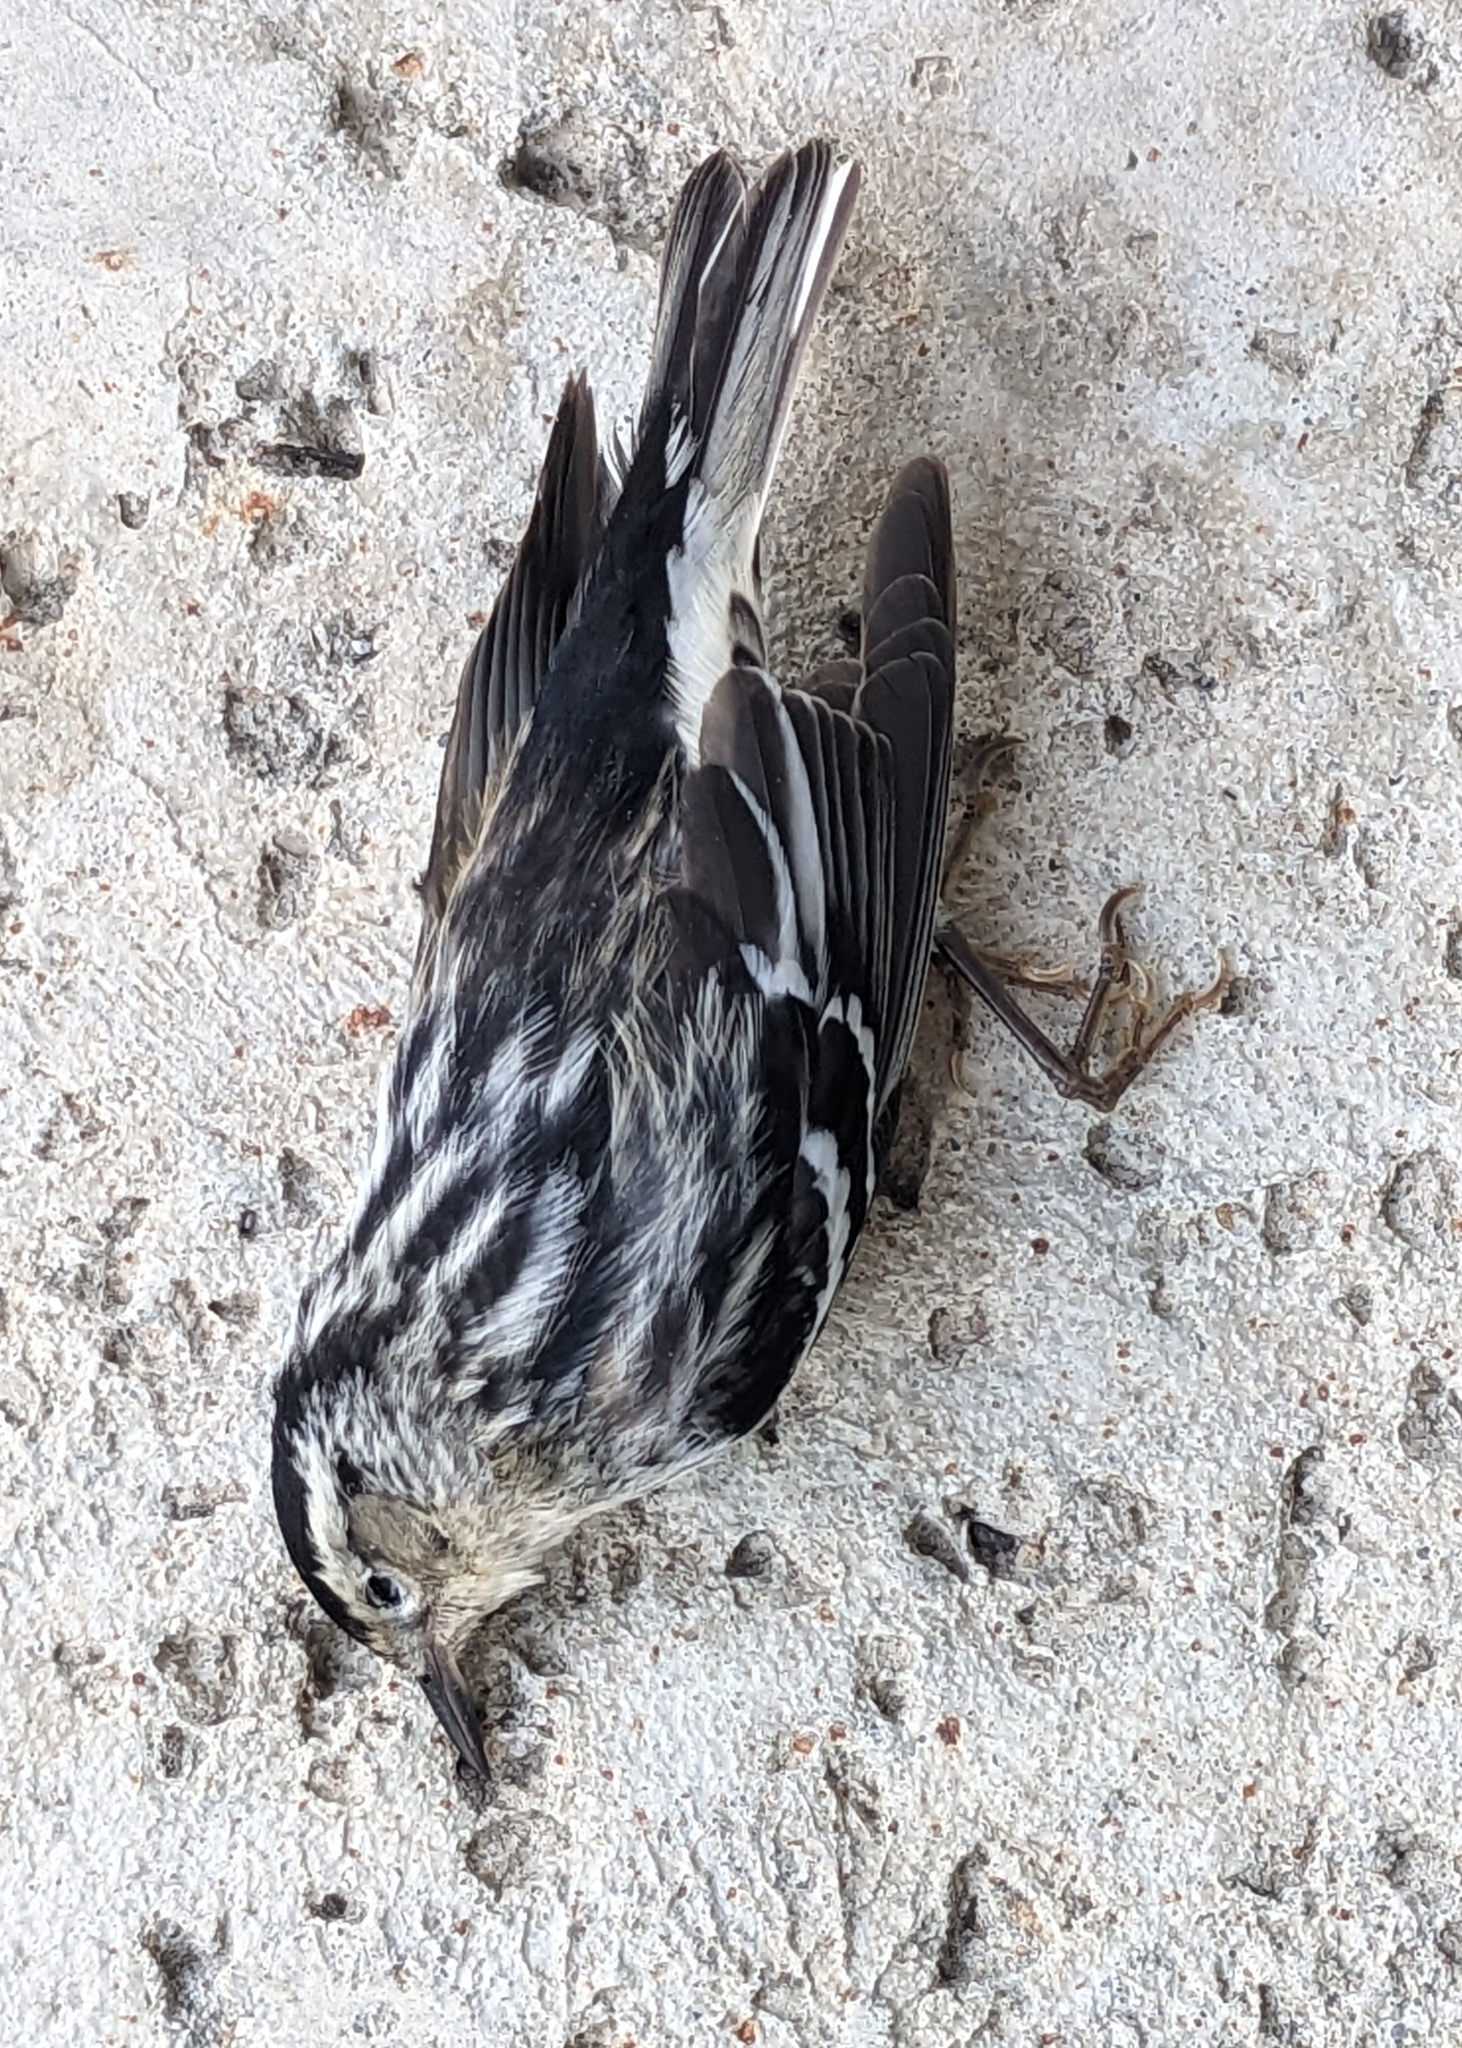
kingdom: Animalia
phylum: Chordata
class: Aves
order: Passeriformes
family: Parulidae
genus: Mniotilta
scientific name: Mniotilta varia
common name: Black-and-white warbler
